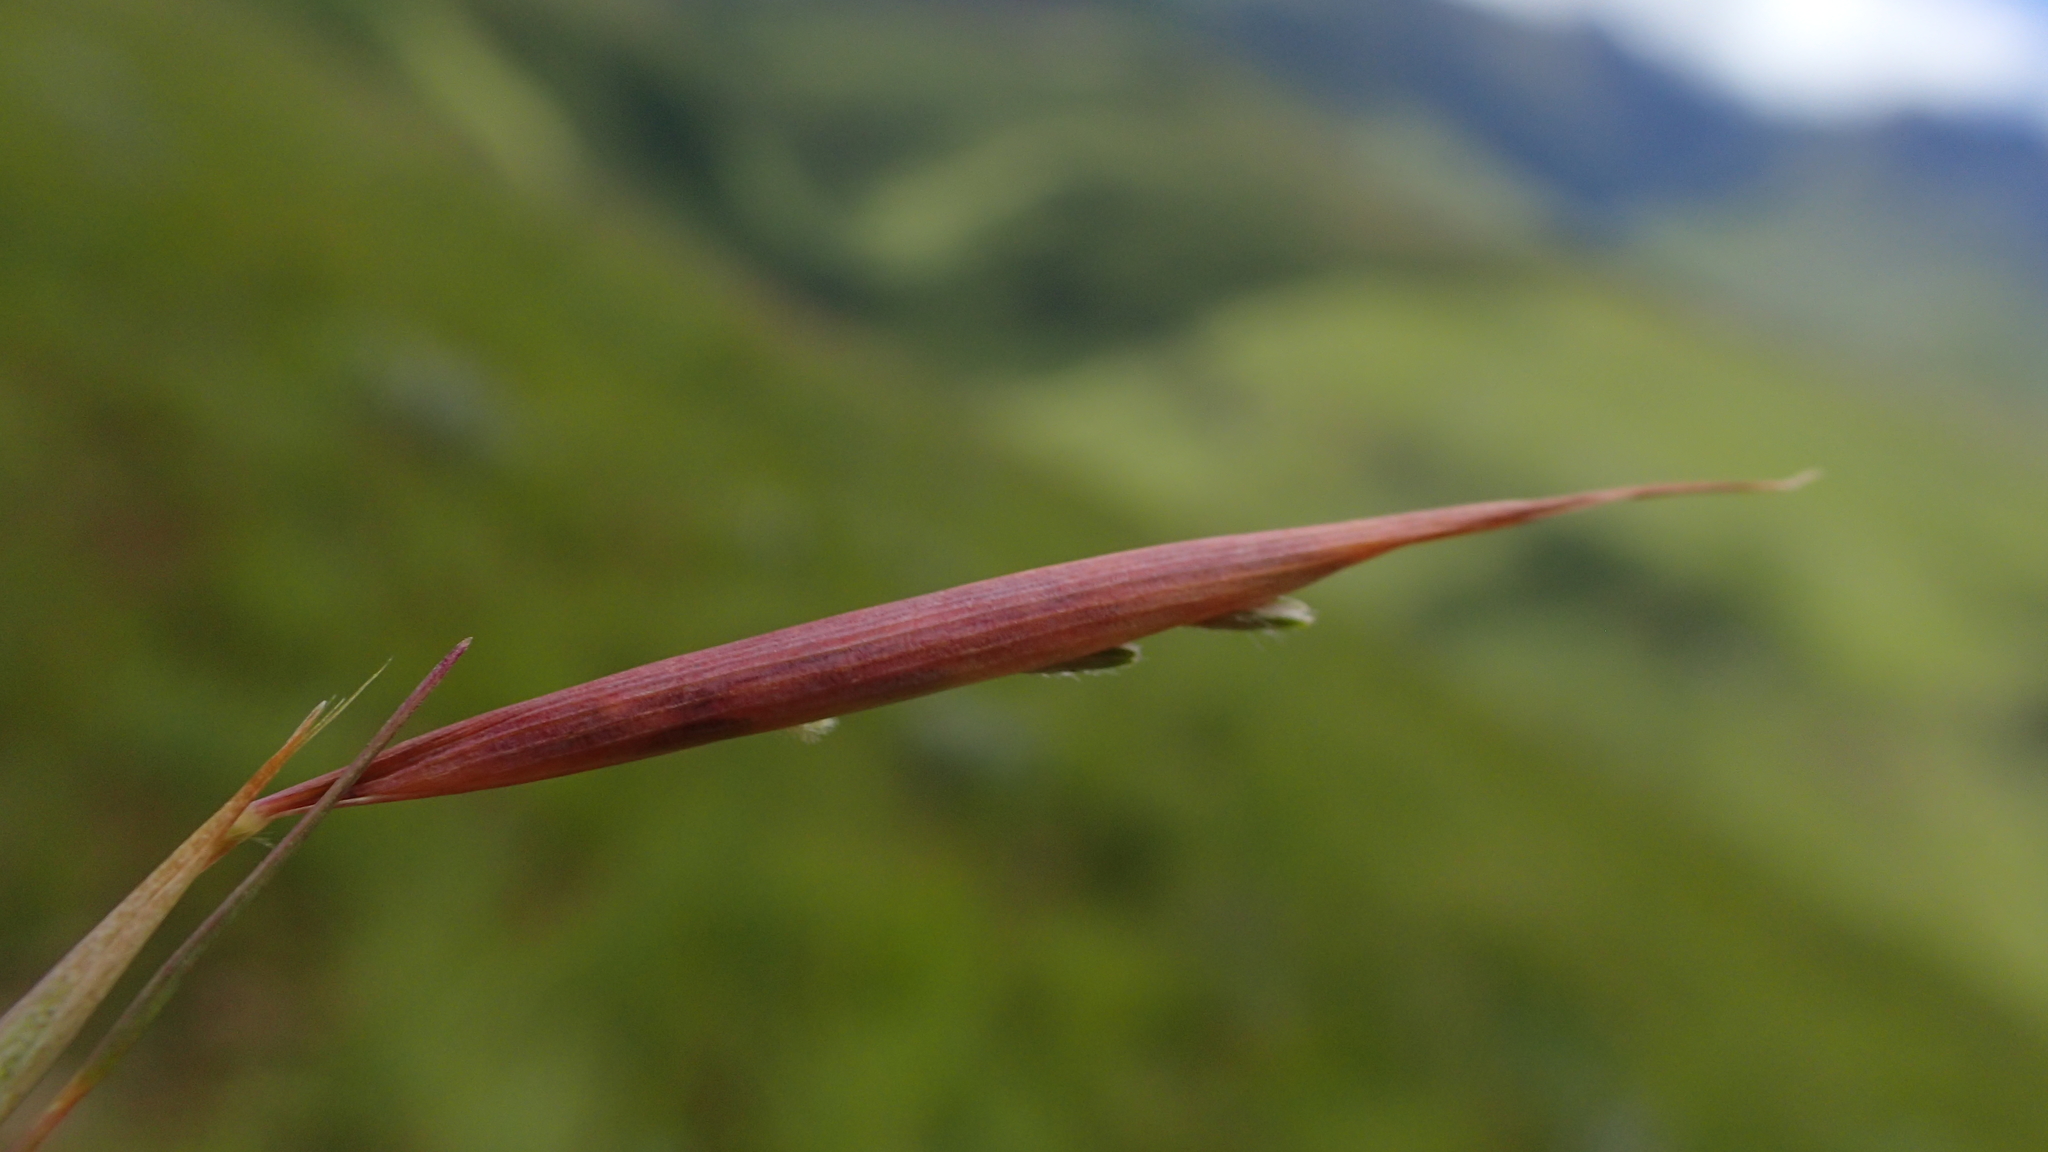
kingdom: Plantae
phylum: Tracheophyta
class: Liliopsida
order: Poales
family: Poaceae
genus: Monocymbium
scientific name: Monocymbium ceresiiforme
